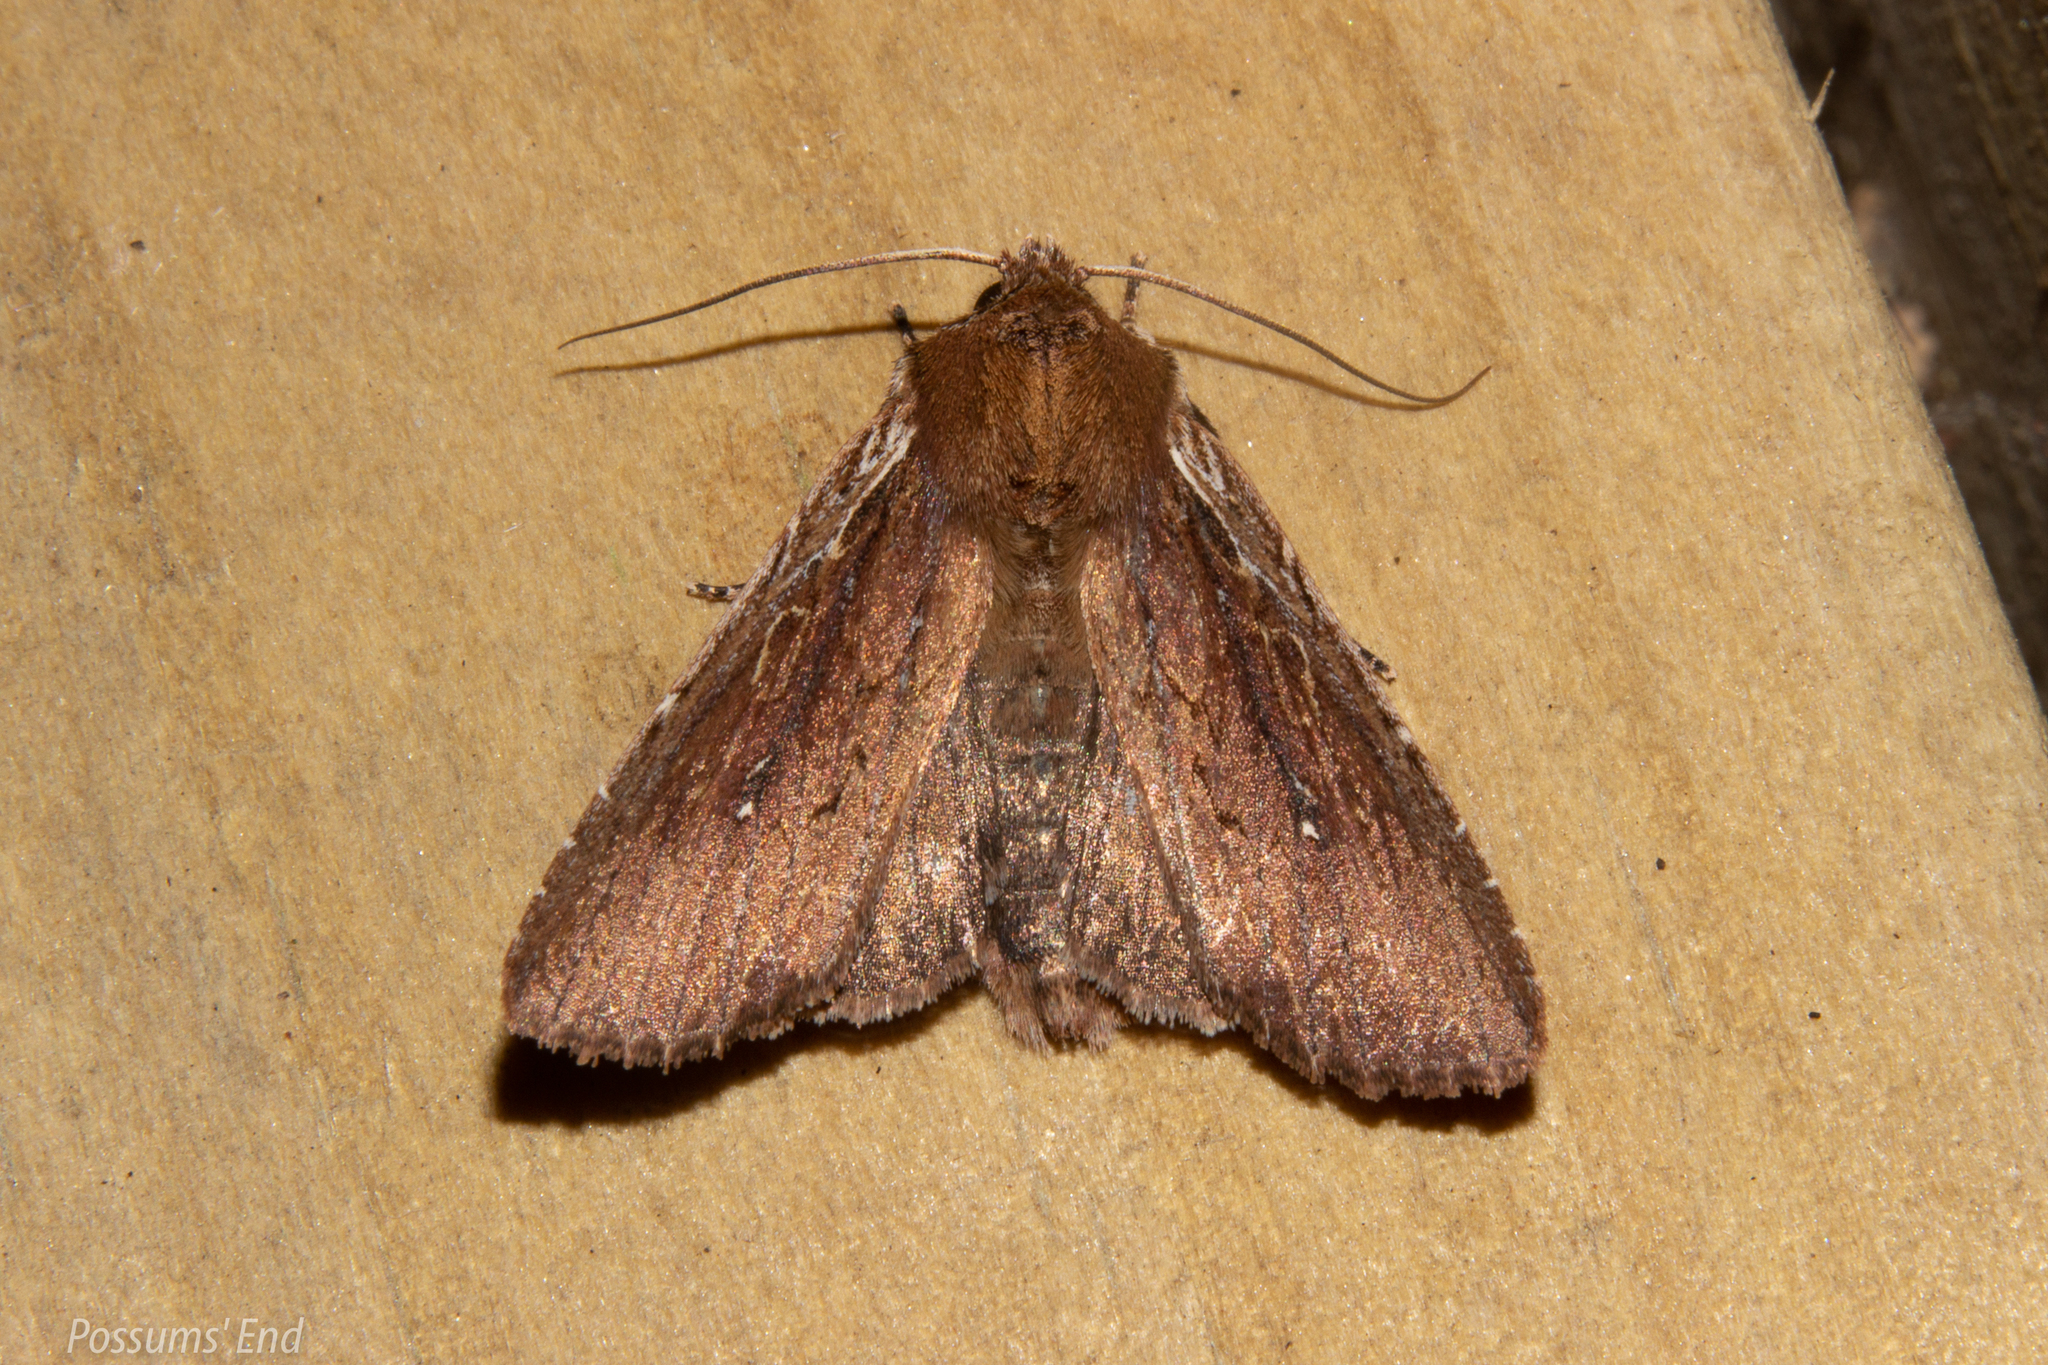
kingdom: Animalia
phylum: Arthropoda
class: Insecta
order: Lepidoptera
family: Noctuidae
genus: Ichneutica
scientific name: Ichneutica
